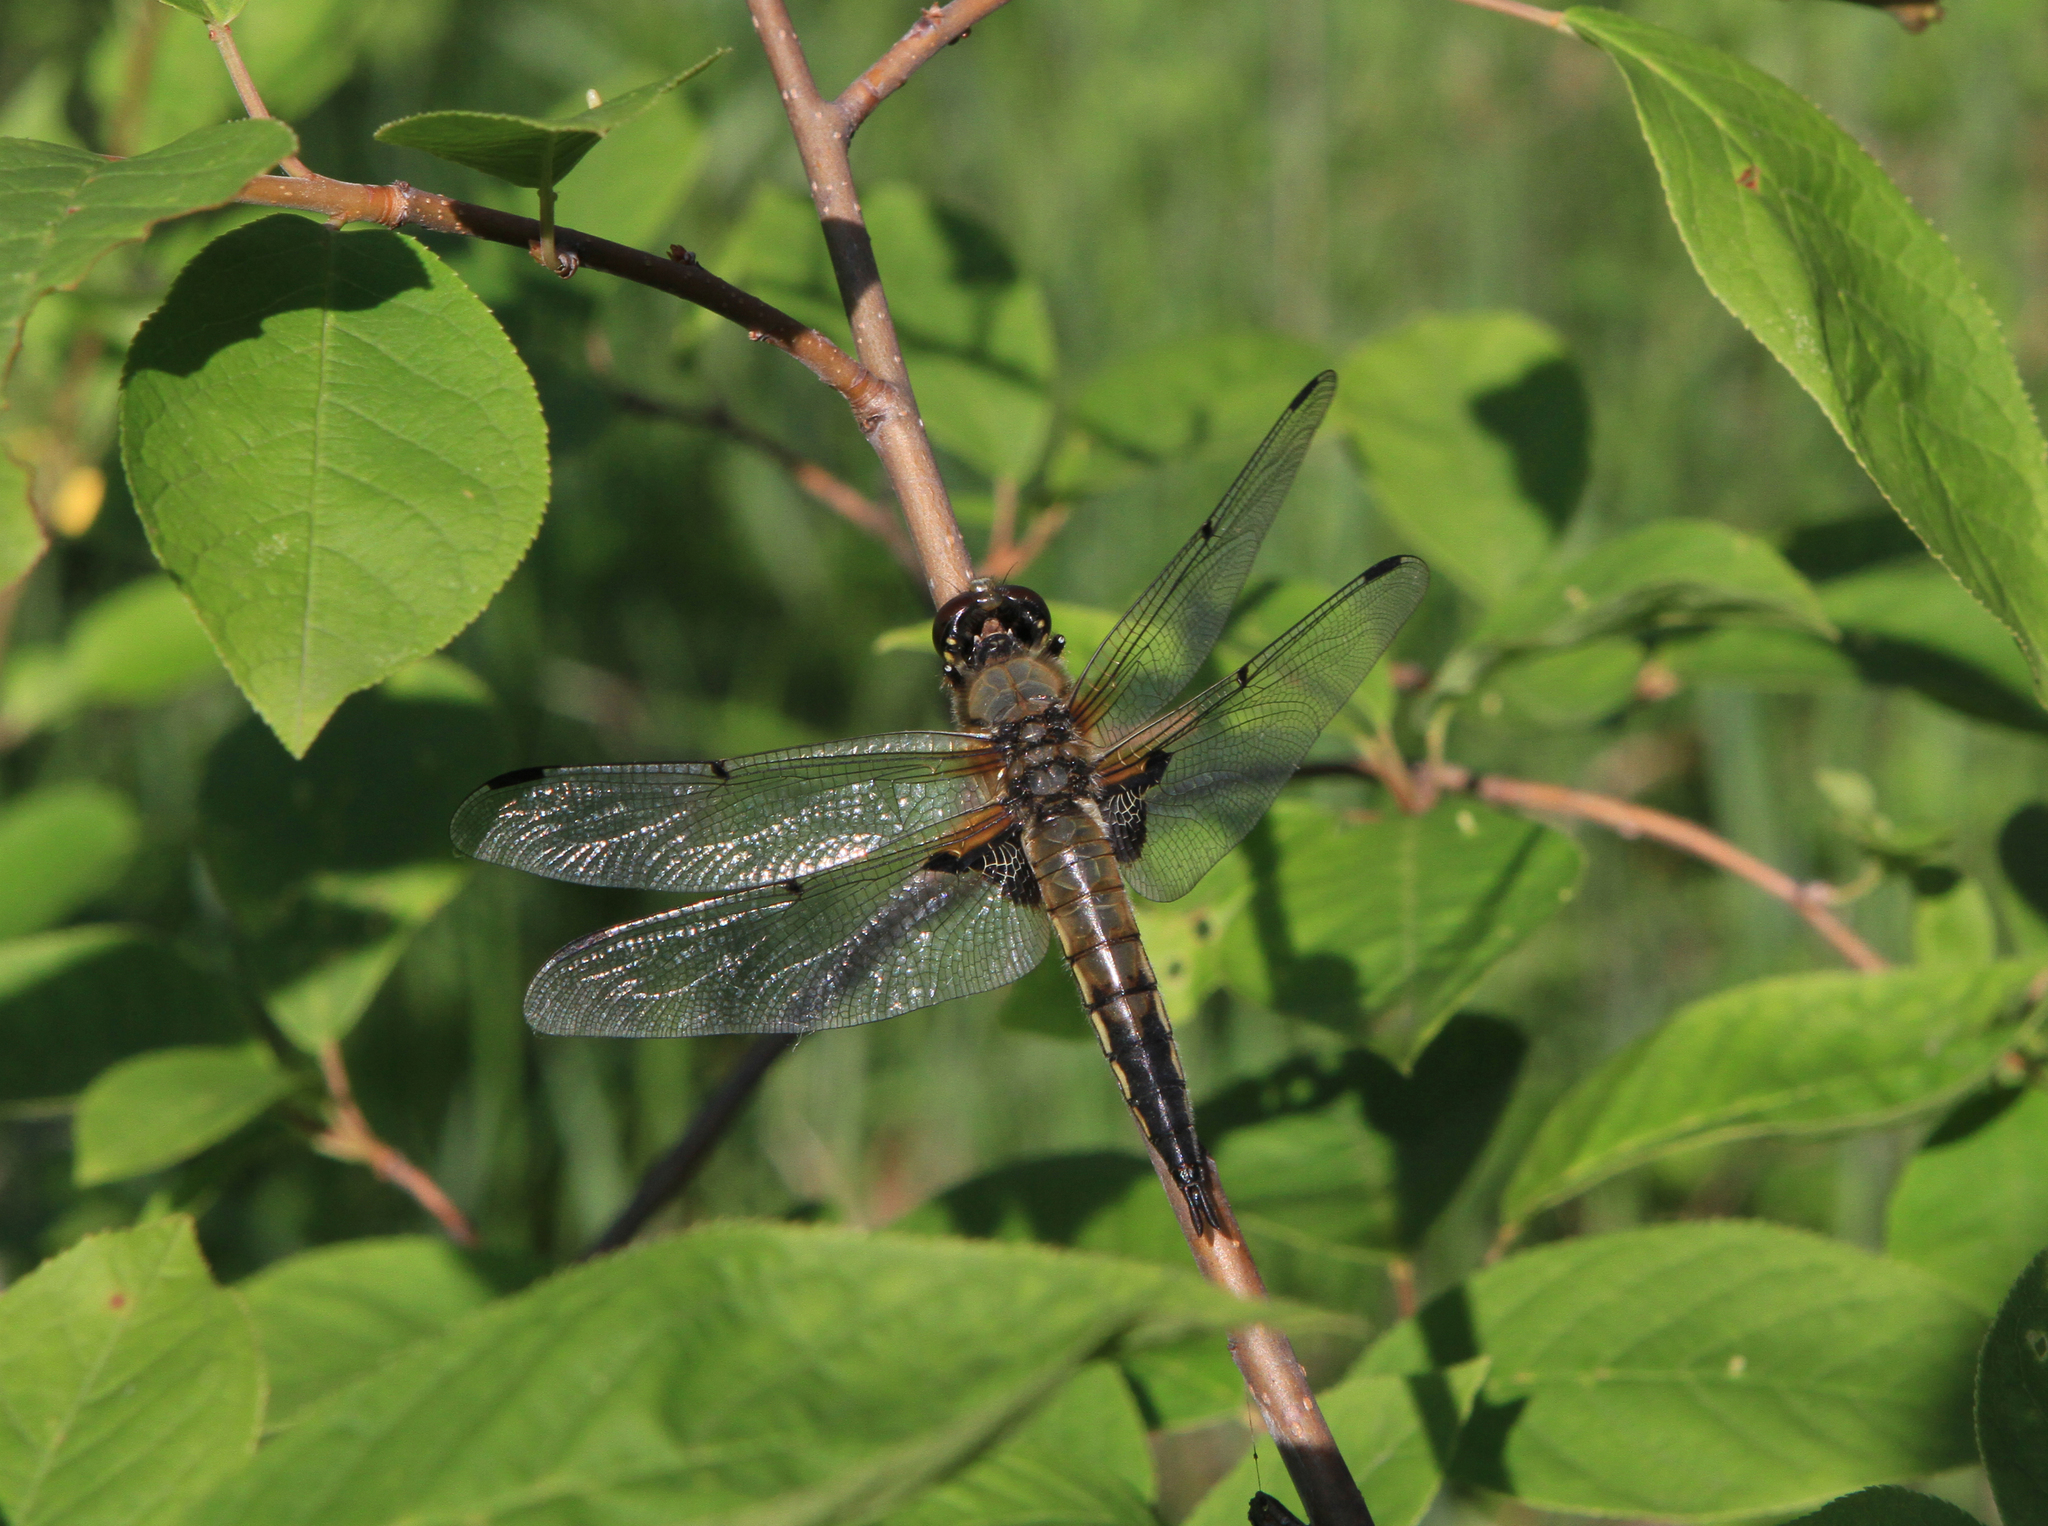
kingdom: Animalia
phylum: Arthropoda
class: Insecta
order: Odonata
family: Libellulidae
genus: Libellula
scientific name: Libellula quadrimaculata
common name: Four-spotted chaser
